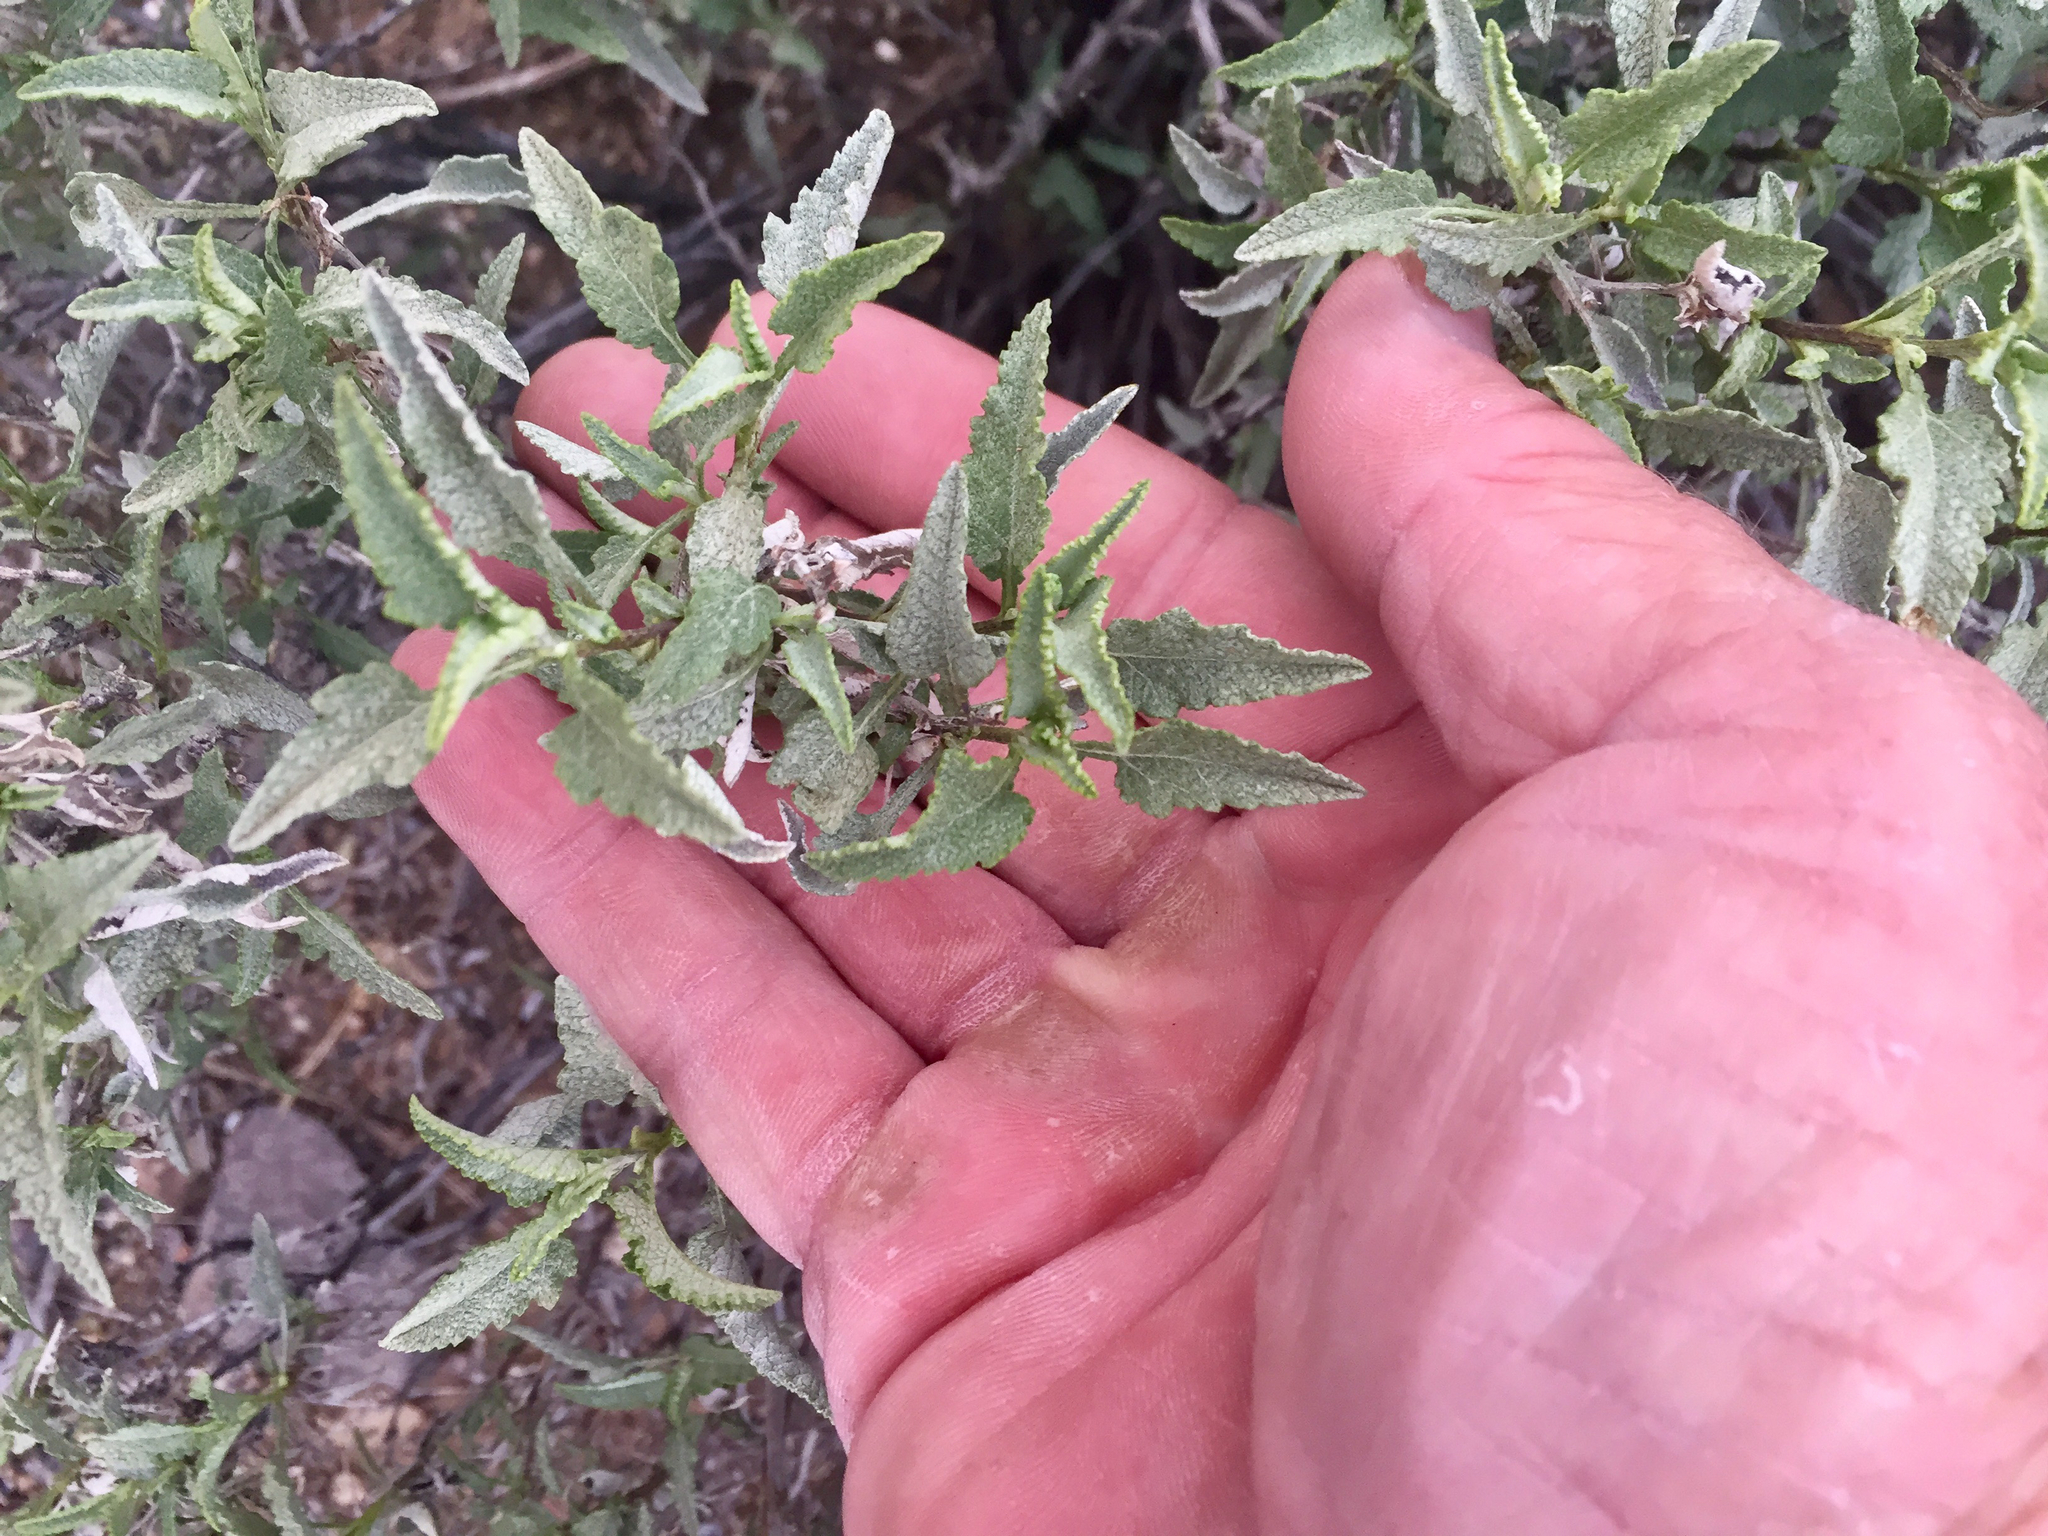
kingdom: Plantae
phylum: Tracheophyta
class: Magnoliopsida
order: Asterales
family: Asteraceae
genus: Ambrosia
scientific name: Ambrosia deltoidea
